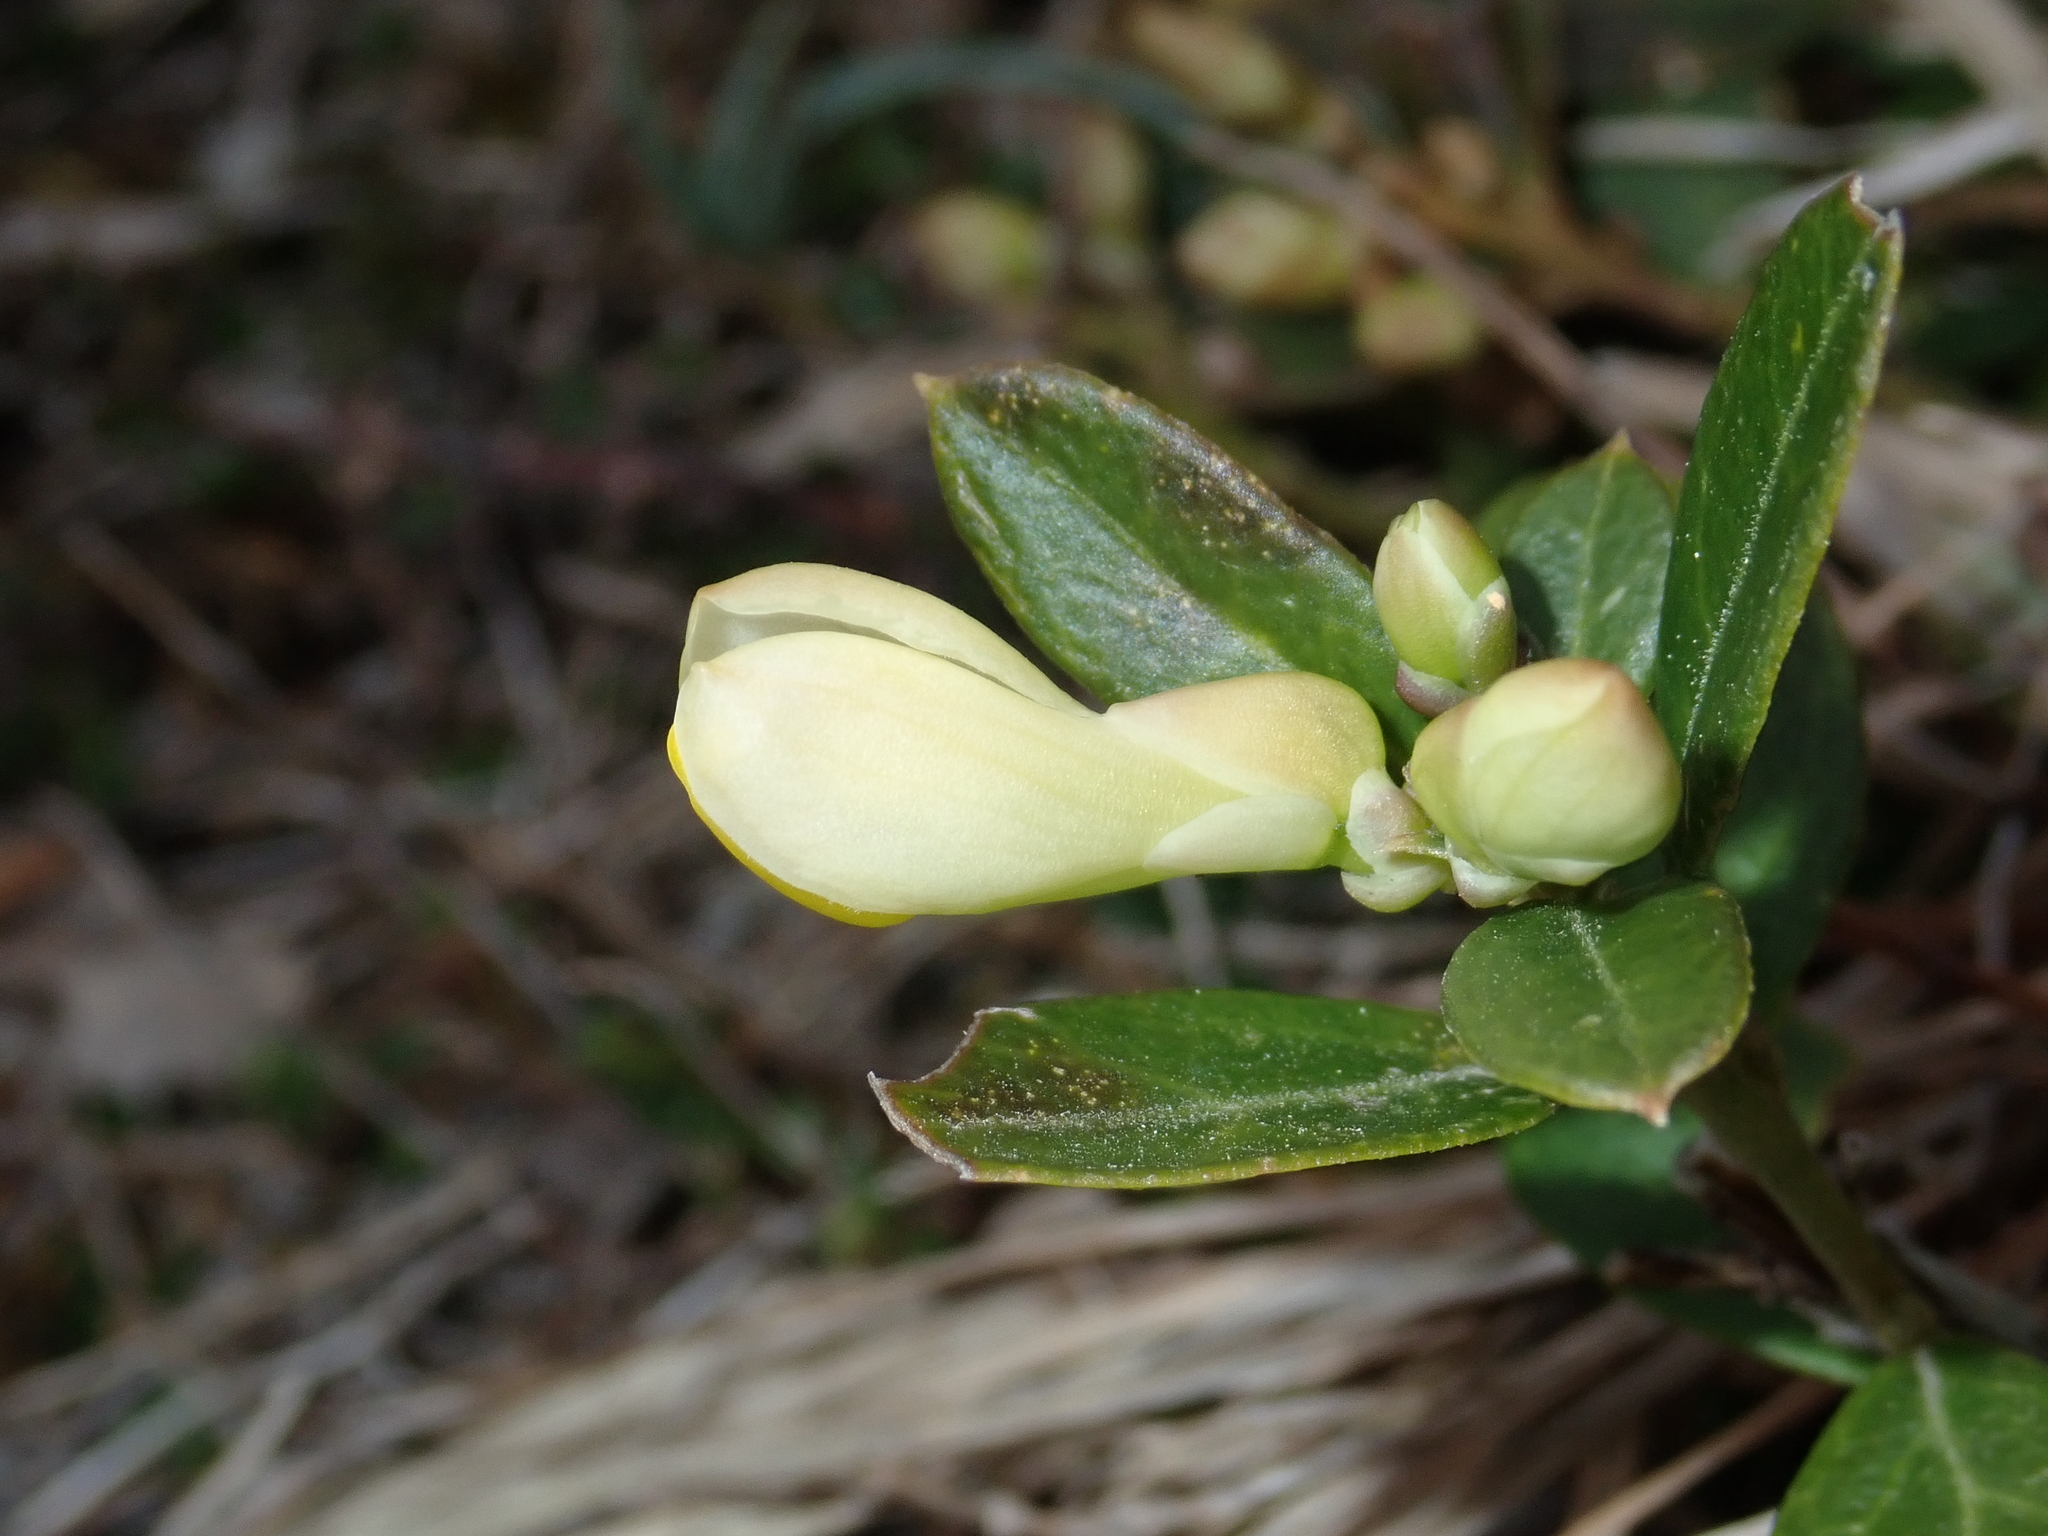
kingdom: Plantae
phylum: Tracheophyta
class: Magnoliopsida
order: Fabales
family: Polygalaceae
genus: Polygaloides
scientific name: Polygaloides chamaebuxus
